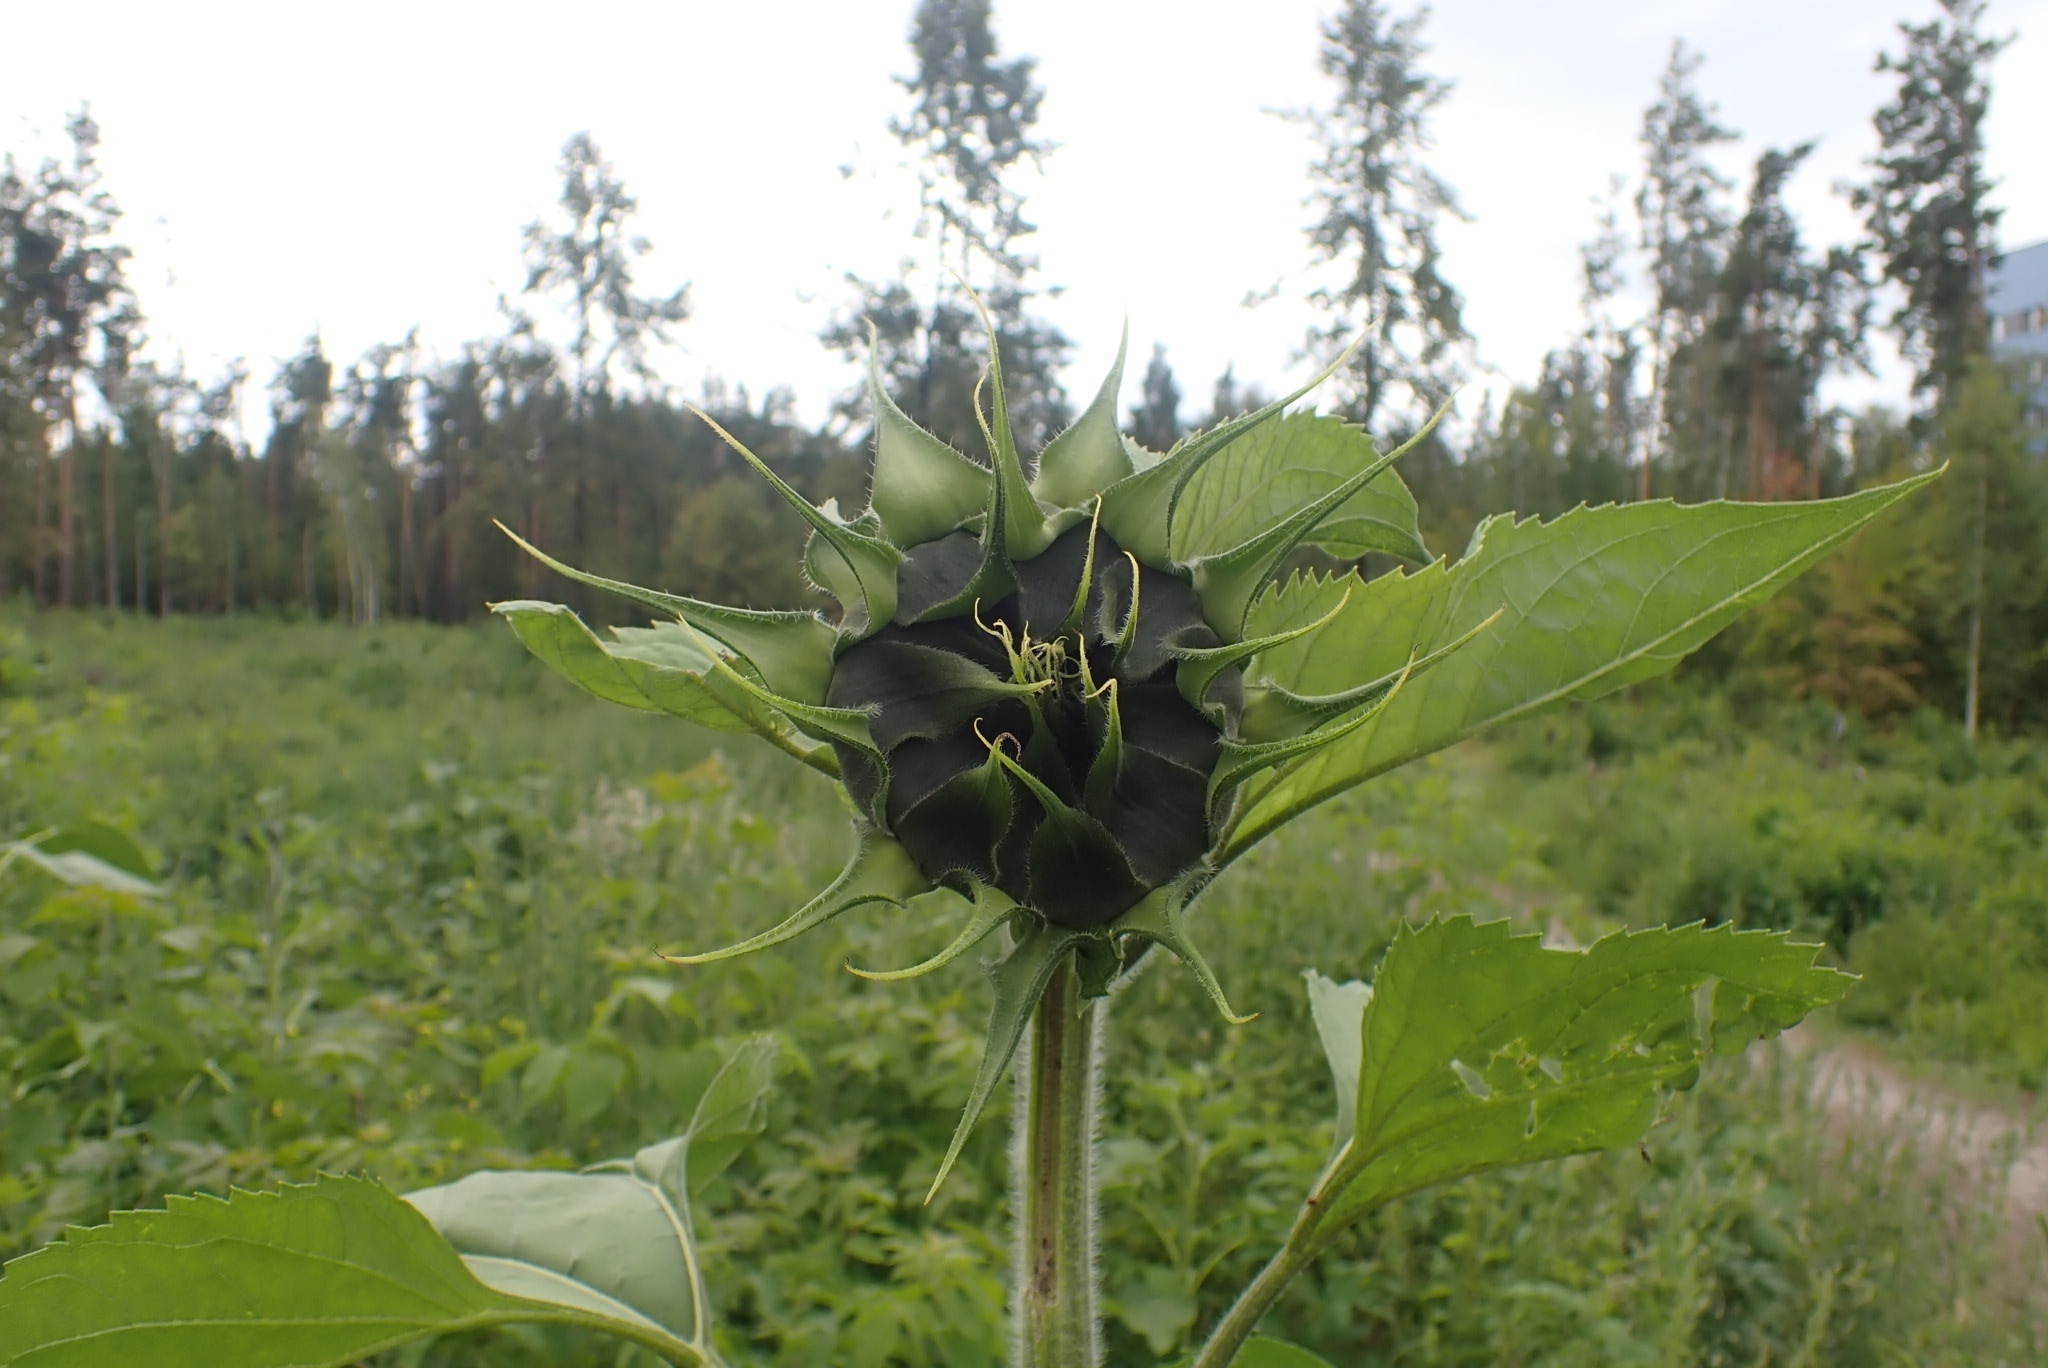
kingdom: Plantae
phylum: Tracheophyta
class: Magnoliopsida
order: Asterales
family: Asteraceae
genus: Helianthus
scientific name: Helianthus annuus
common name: Sunflower
